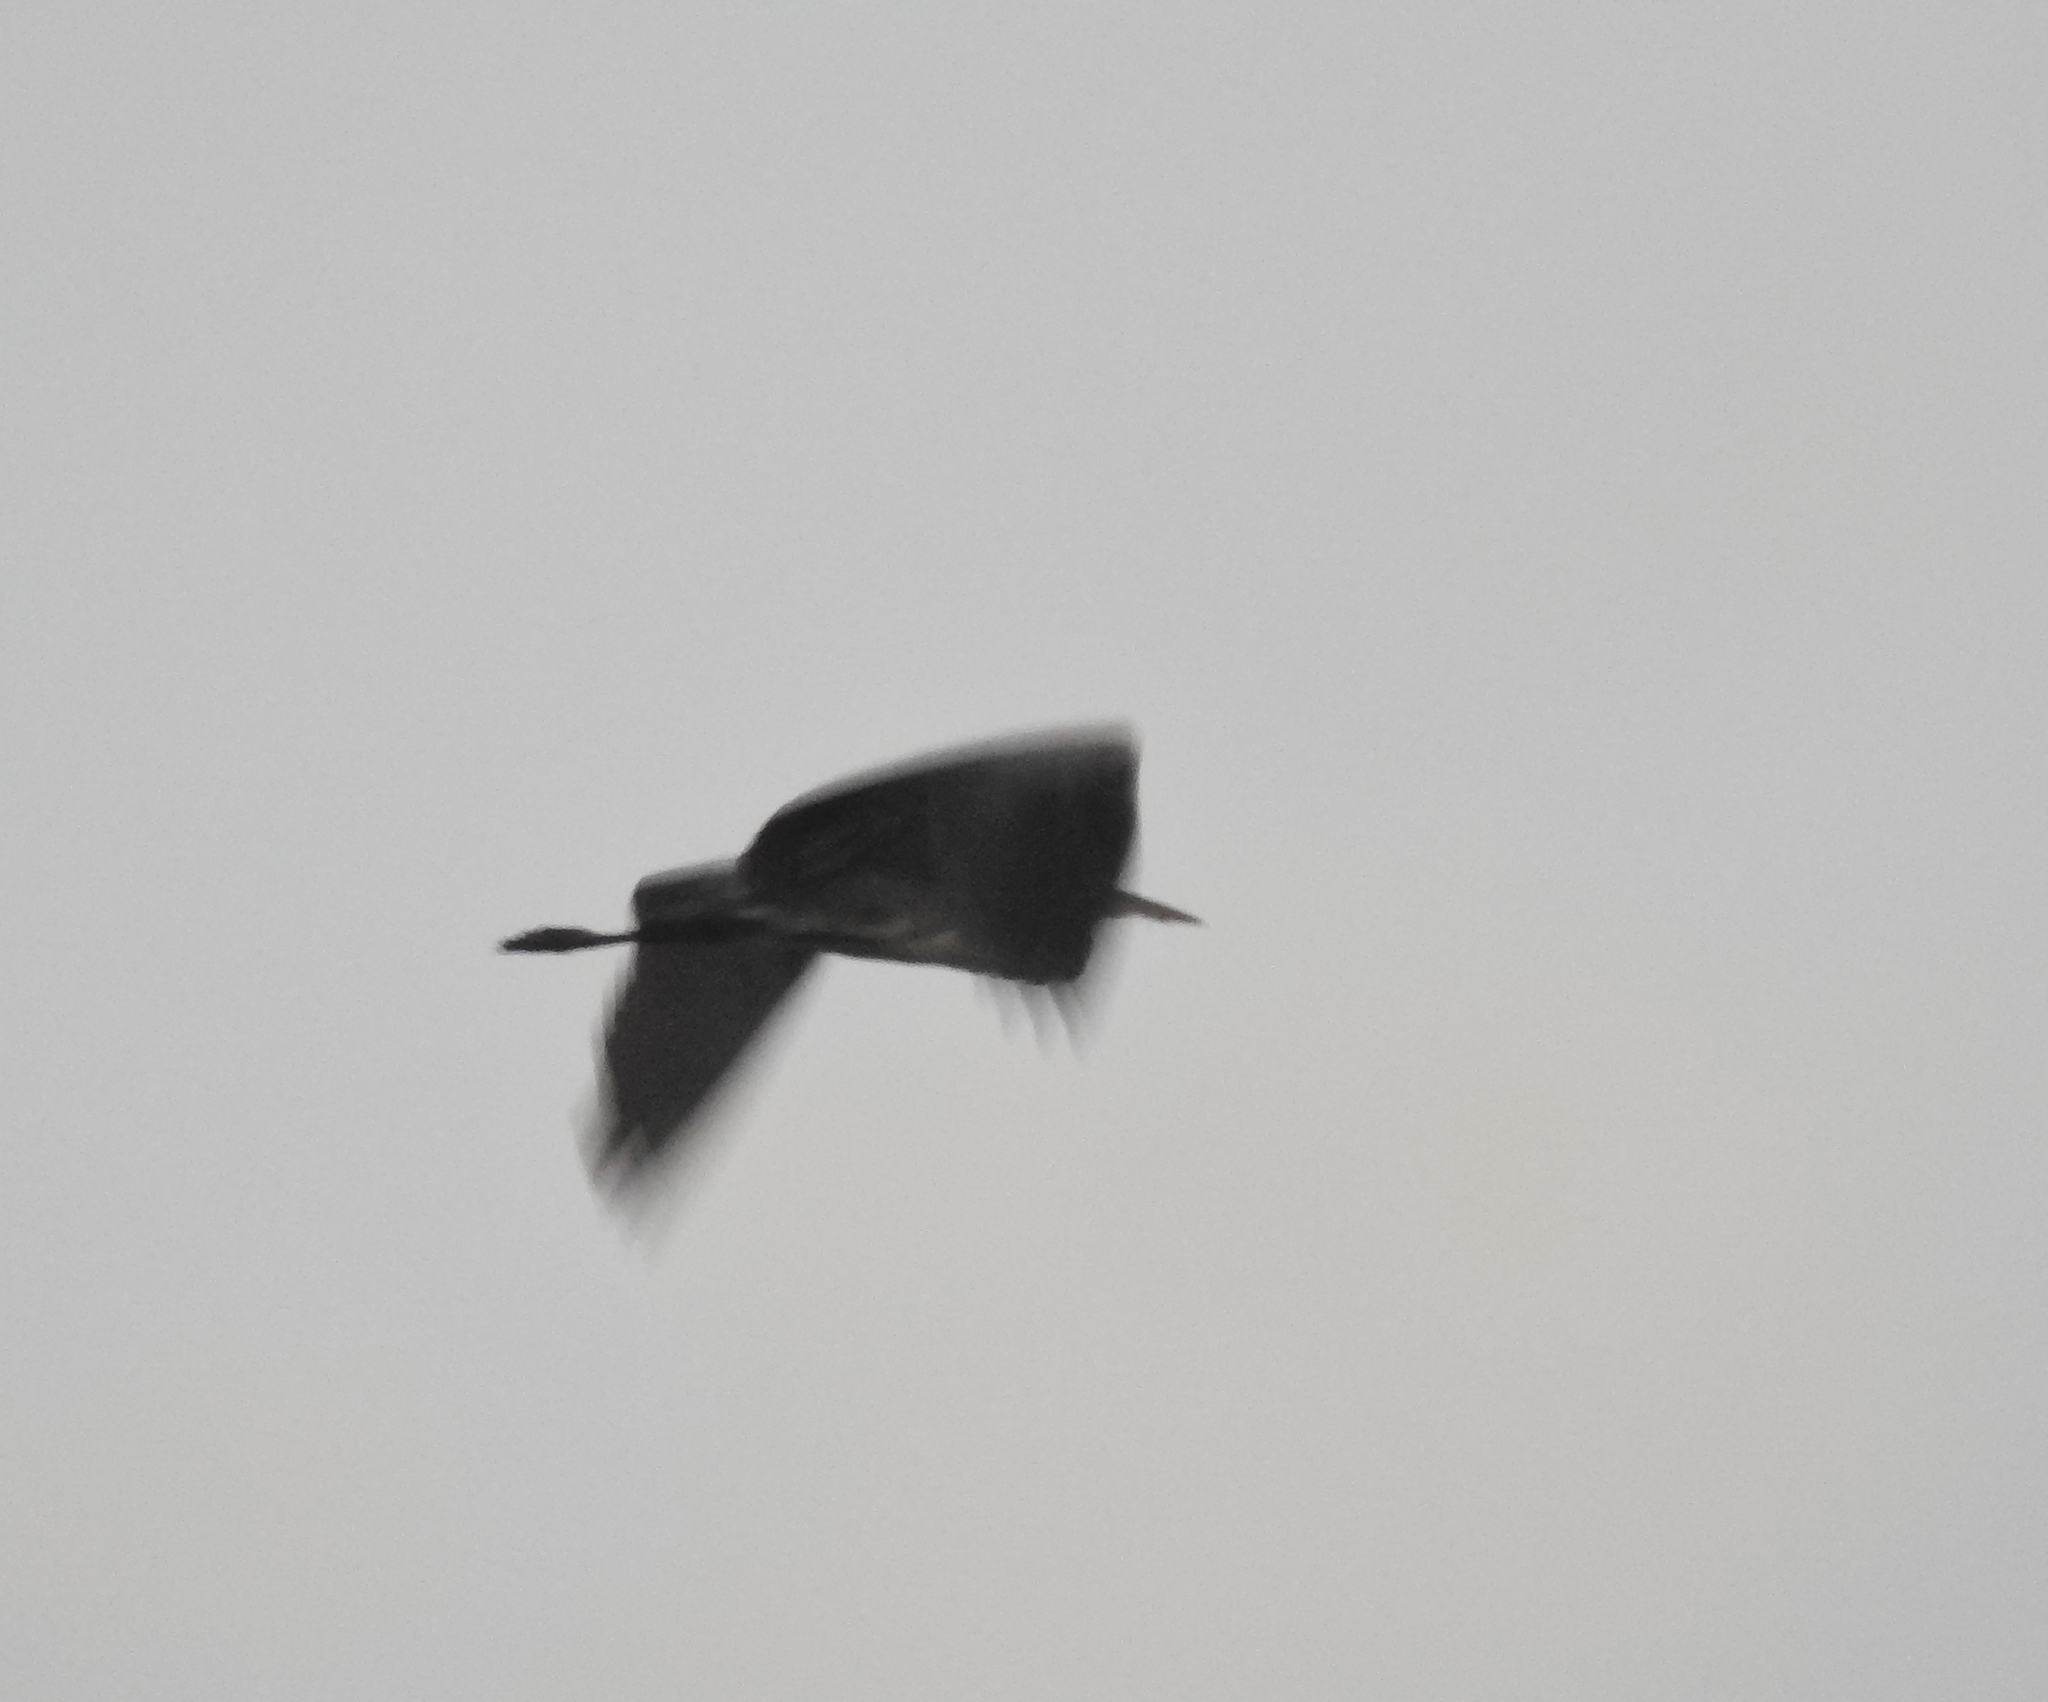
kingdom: Animalia
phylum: Chordata
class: Aves
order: Pelecaniformes
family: Ardeidae
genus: Ardea
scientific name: Ardea cinerea
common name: Grey heron
